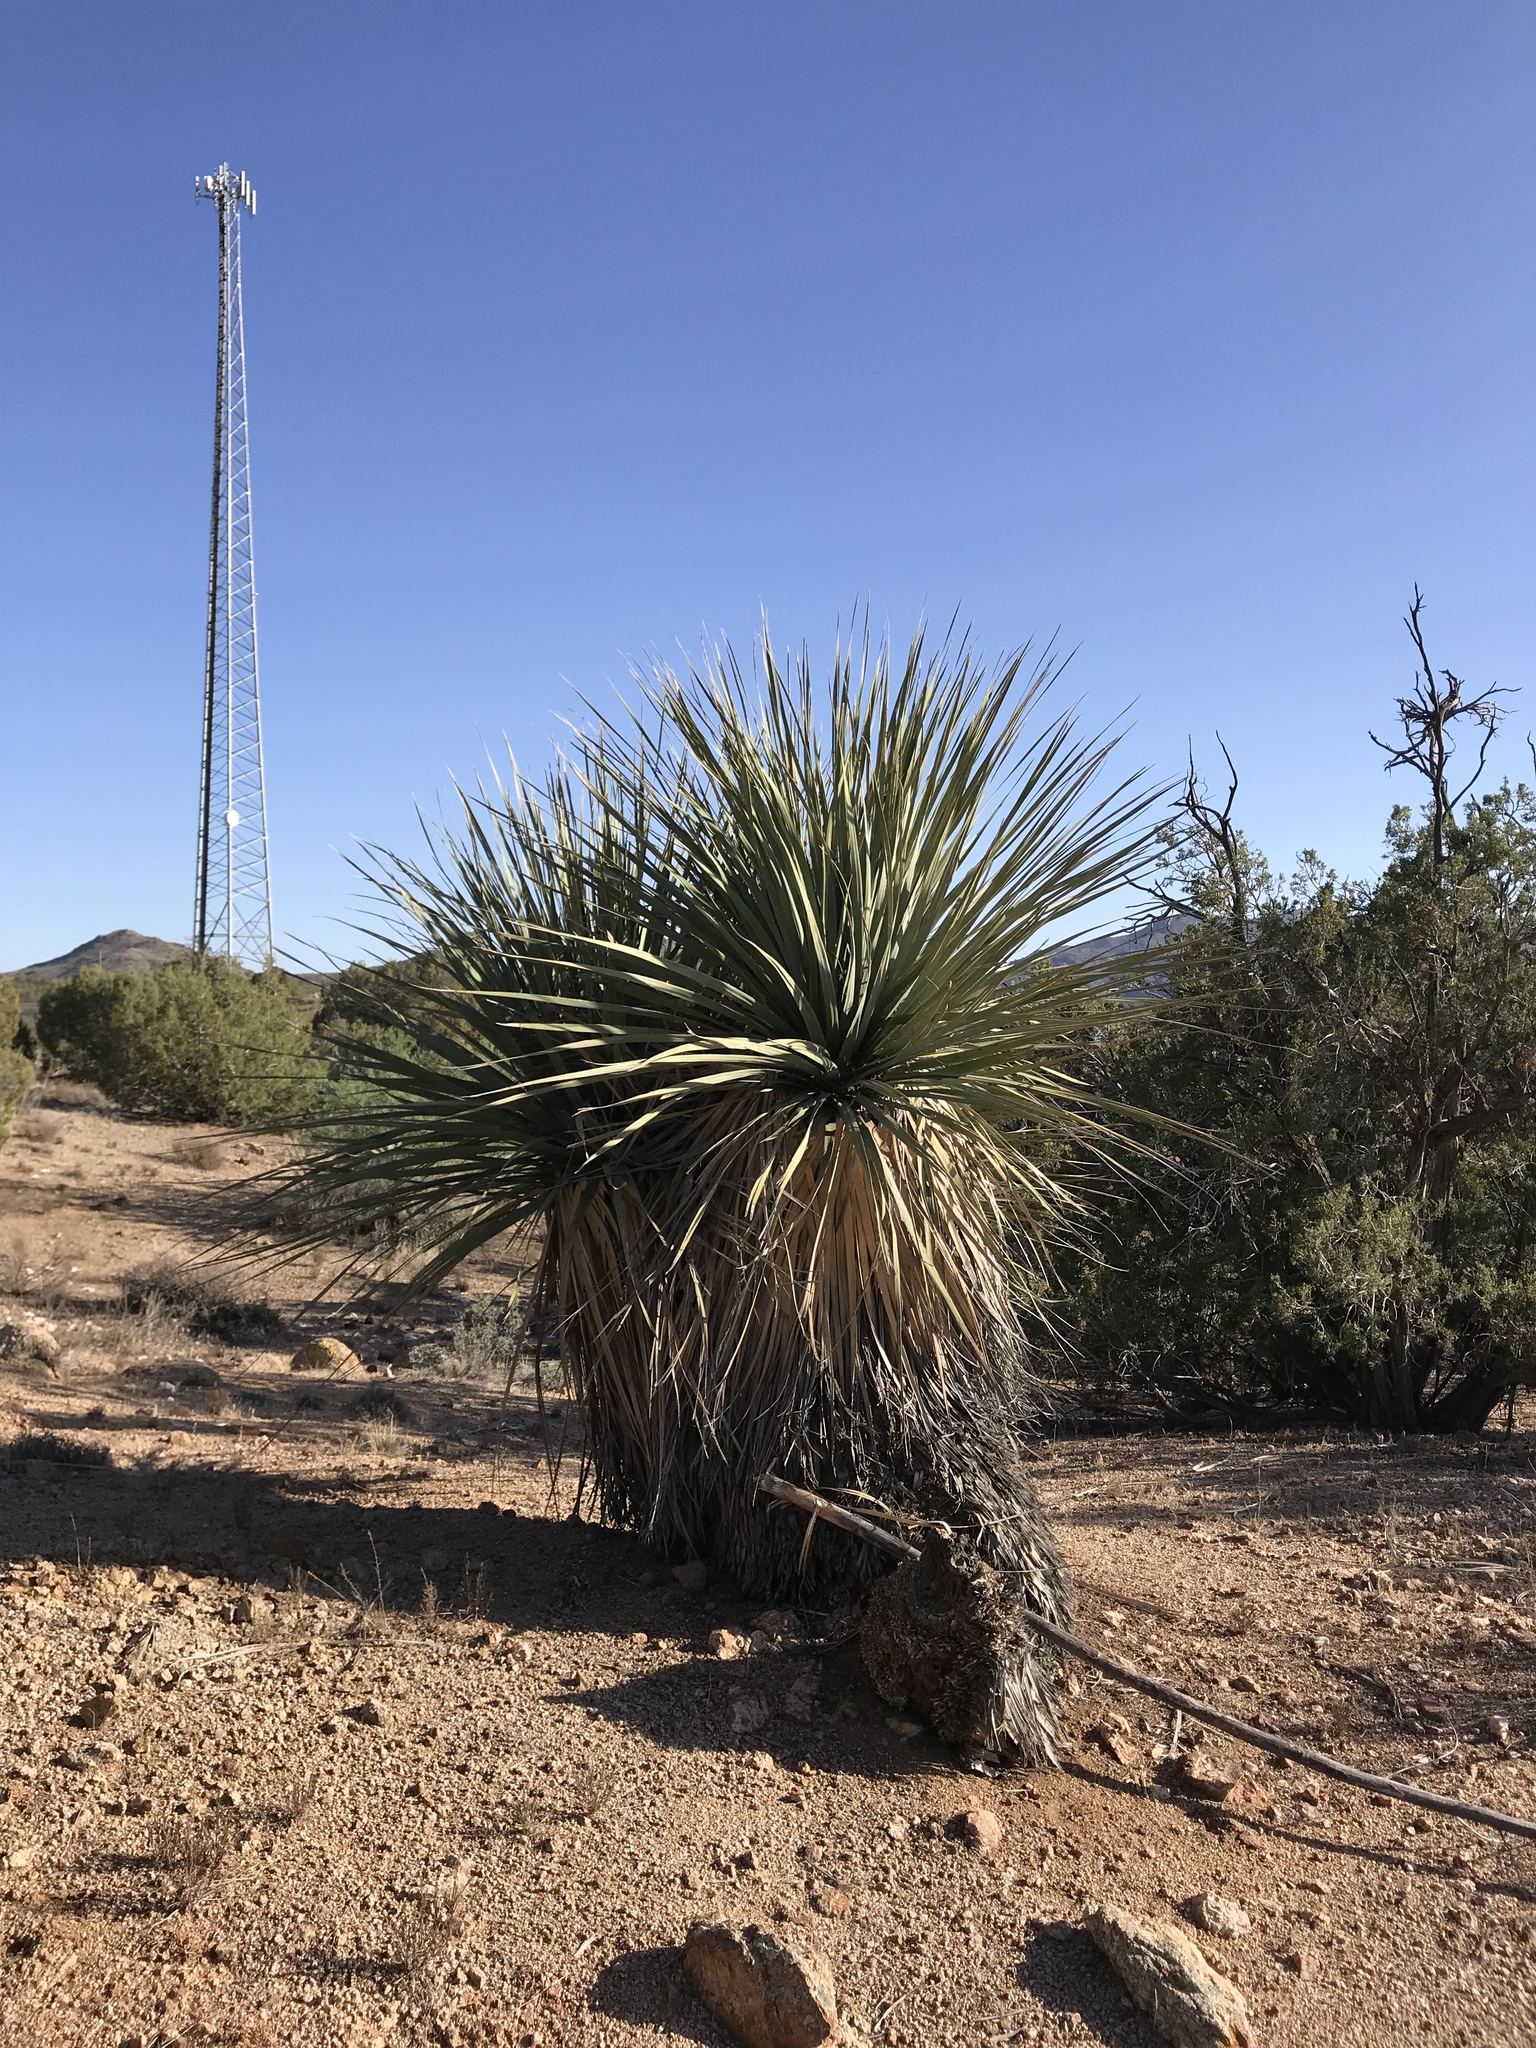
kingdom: Plantae
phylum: Tracheophyta
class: Liliopsida
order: Asparagales
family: Asparagaceae
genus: Nolina
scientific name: Nolina bigelovii
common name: Bigelow bear-grass
